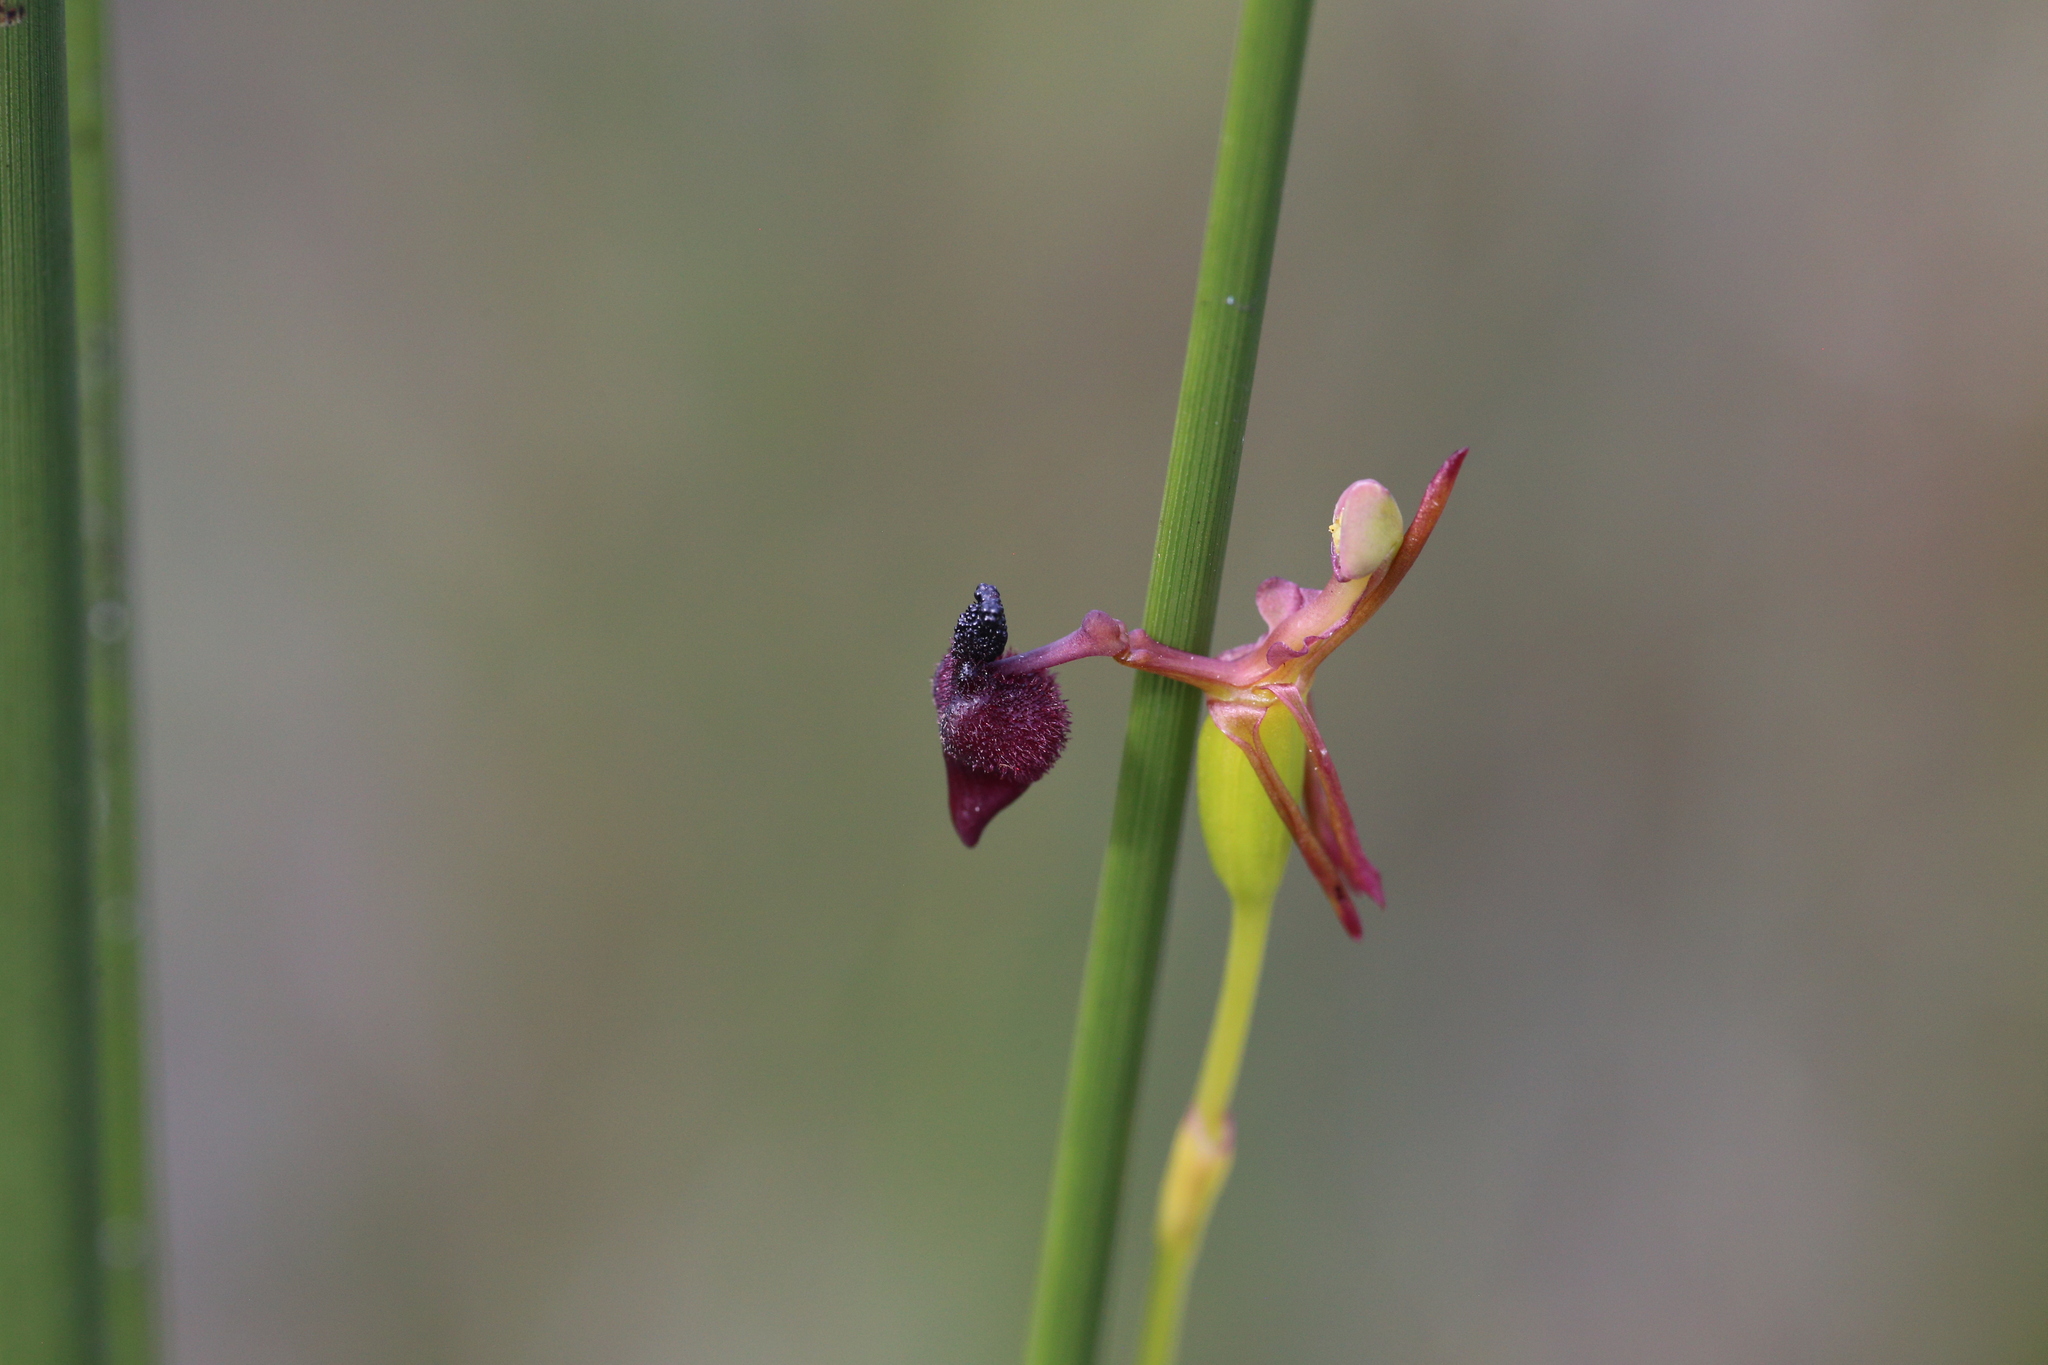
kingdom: Plantae
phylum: Tracheophyta
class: Liliopsida
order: Asparagales
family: Orchidaceae
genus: Drakaea
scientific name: Drakaea glyptodon
